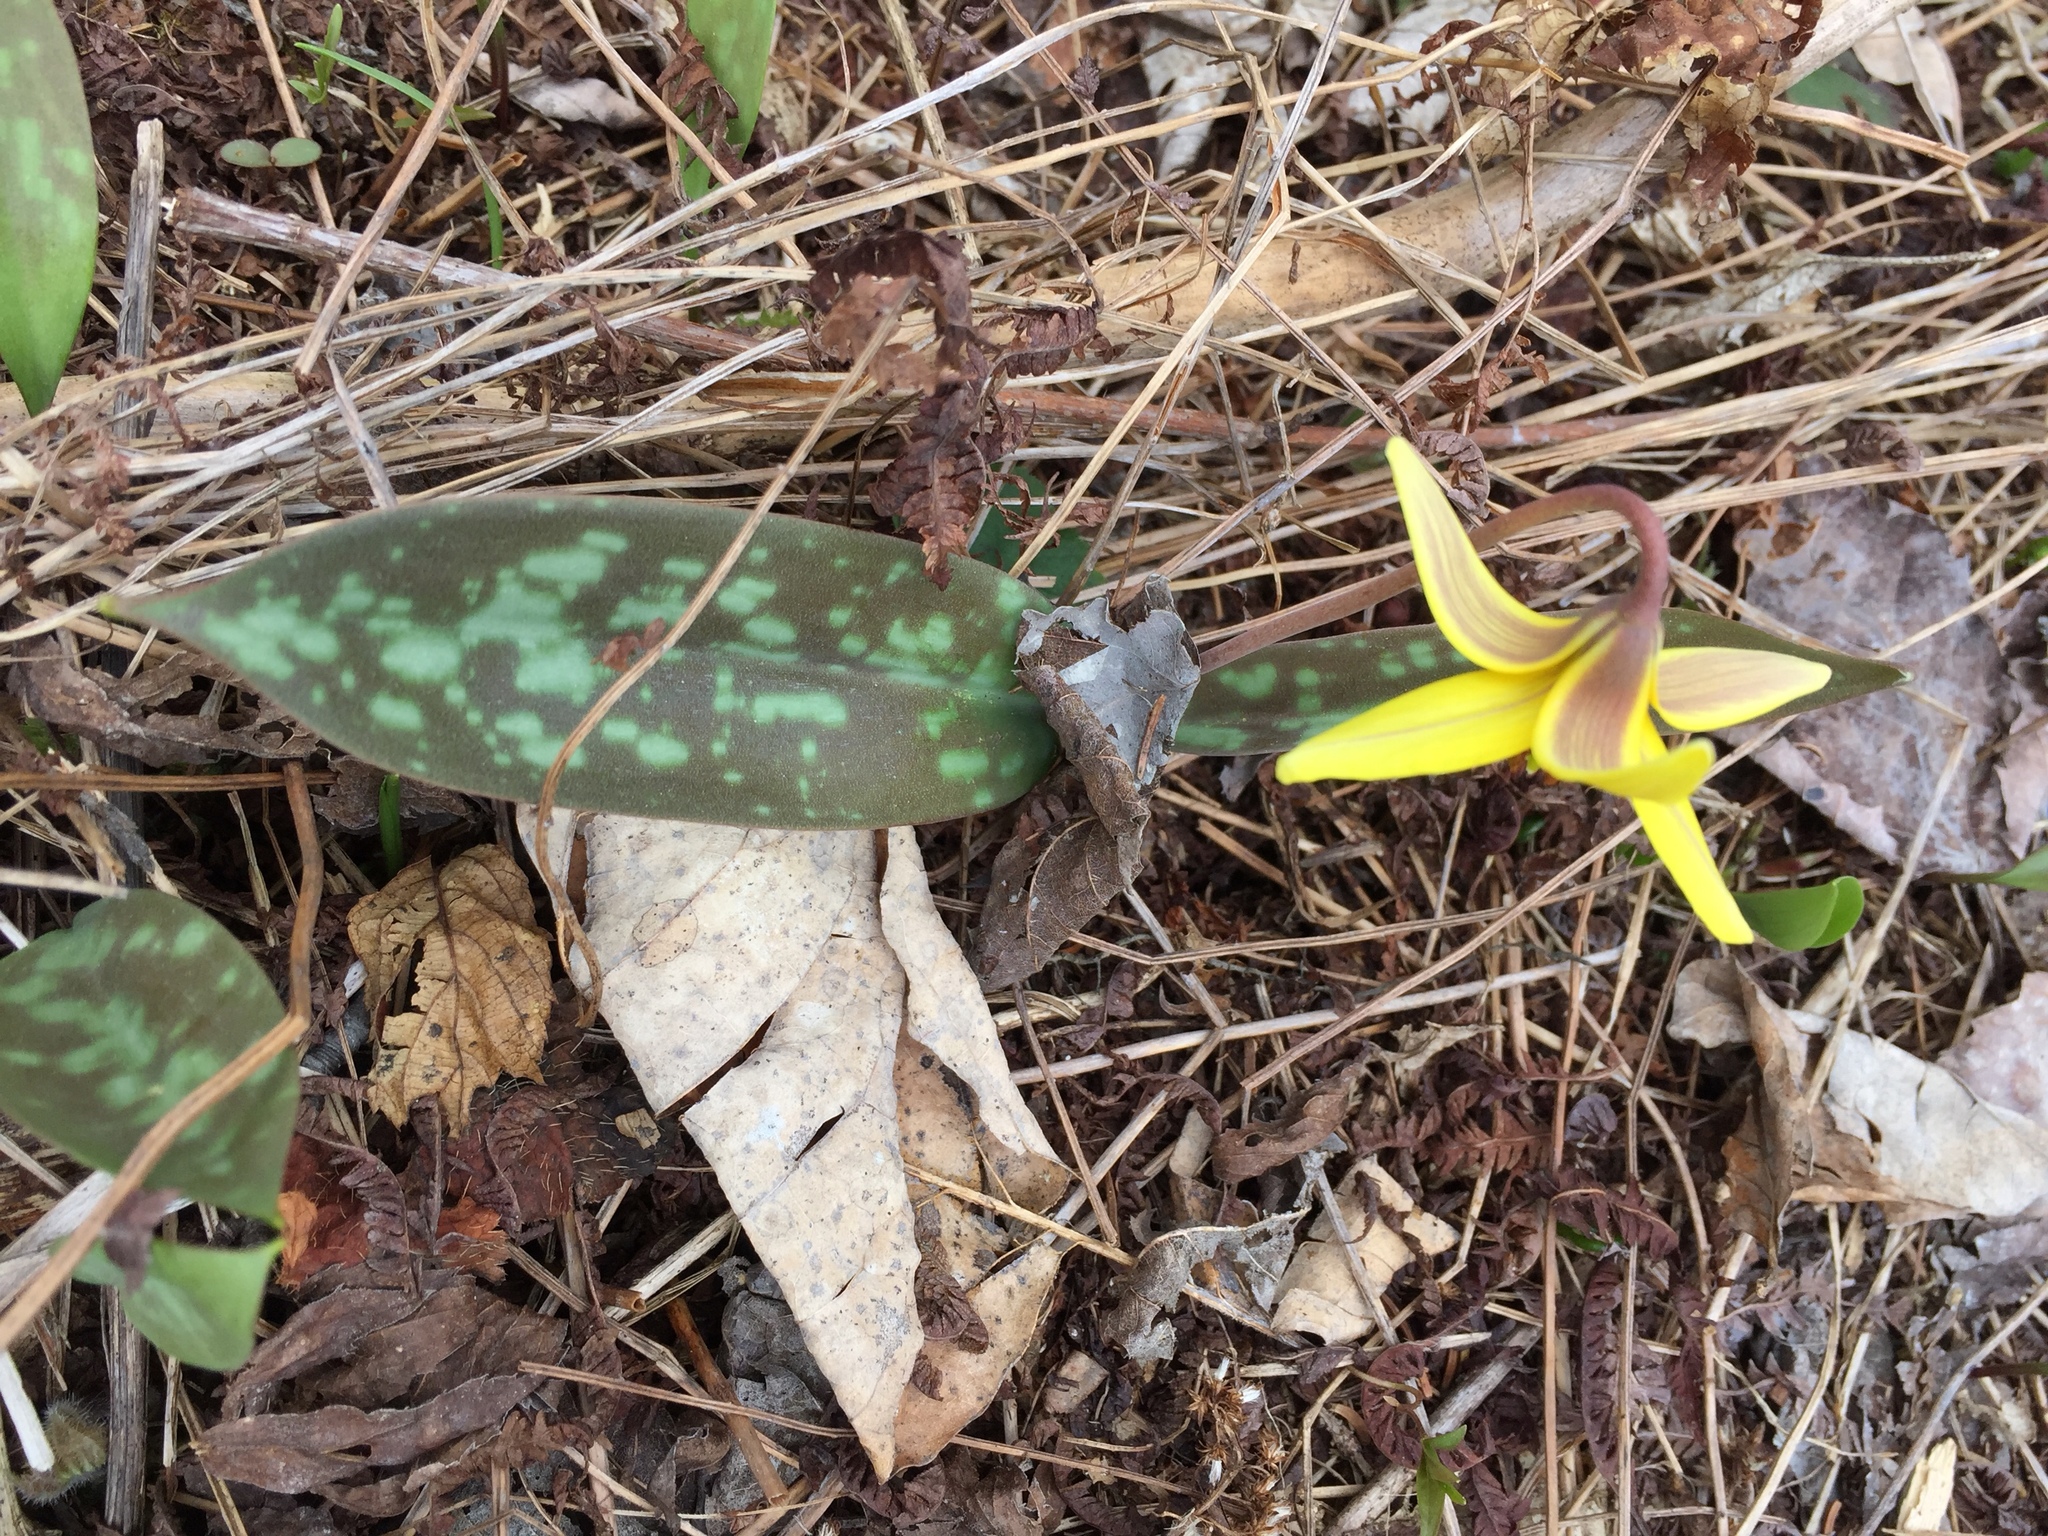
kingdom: Plantae
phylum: Tracheophyta
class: Liliopsida
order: Liliales
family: Liliaceae
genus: Erythronium
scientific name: Erythronium americanum
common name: Yellow adder's-tongue
